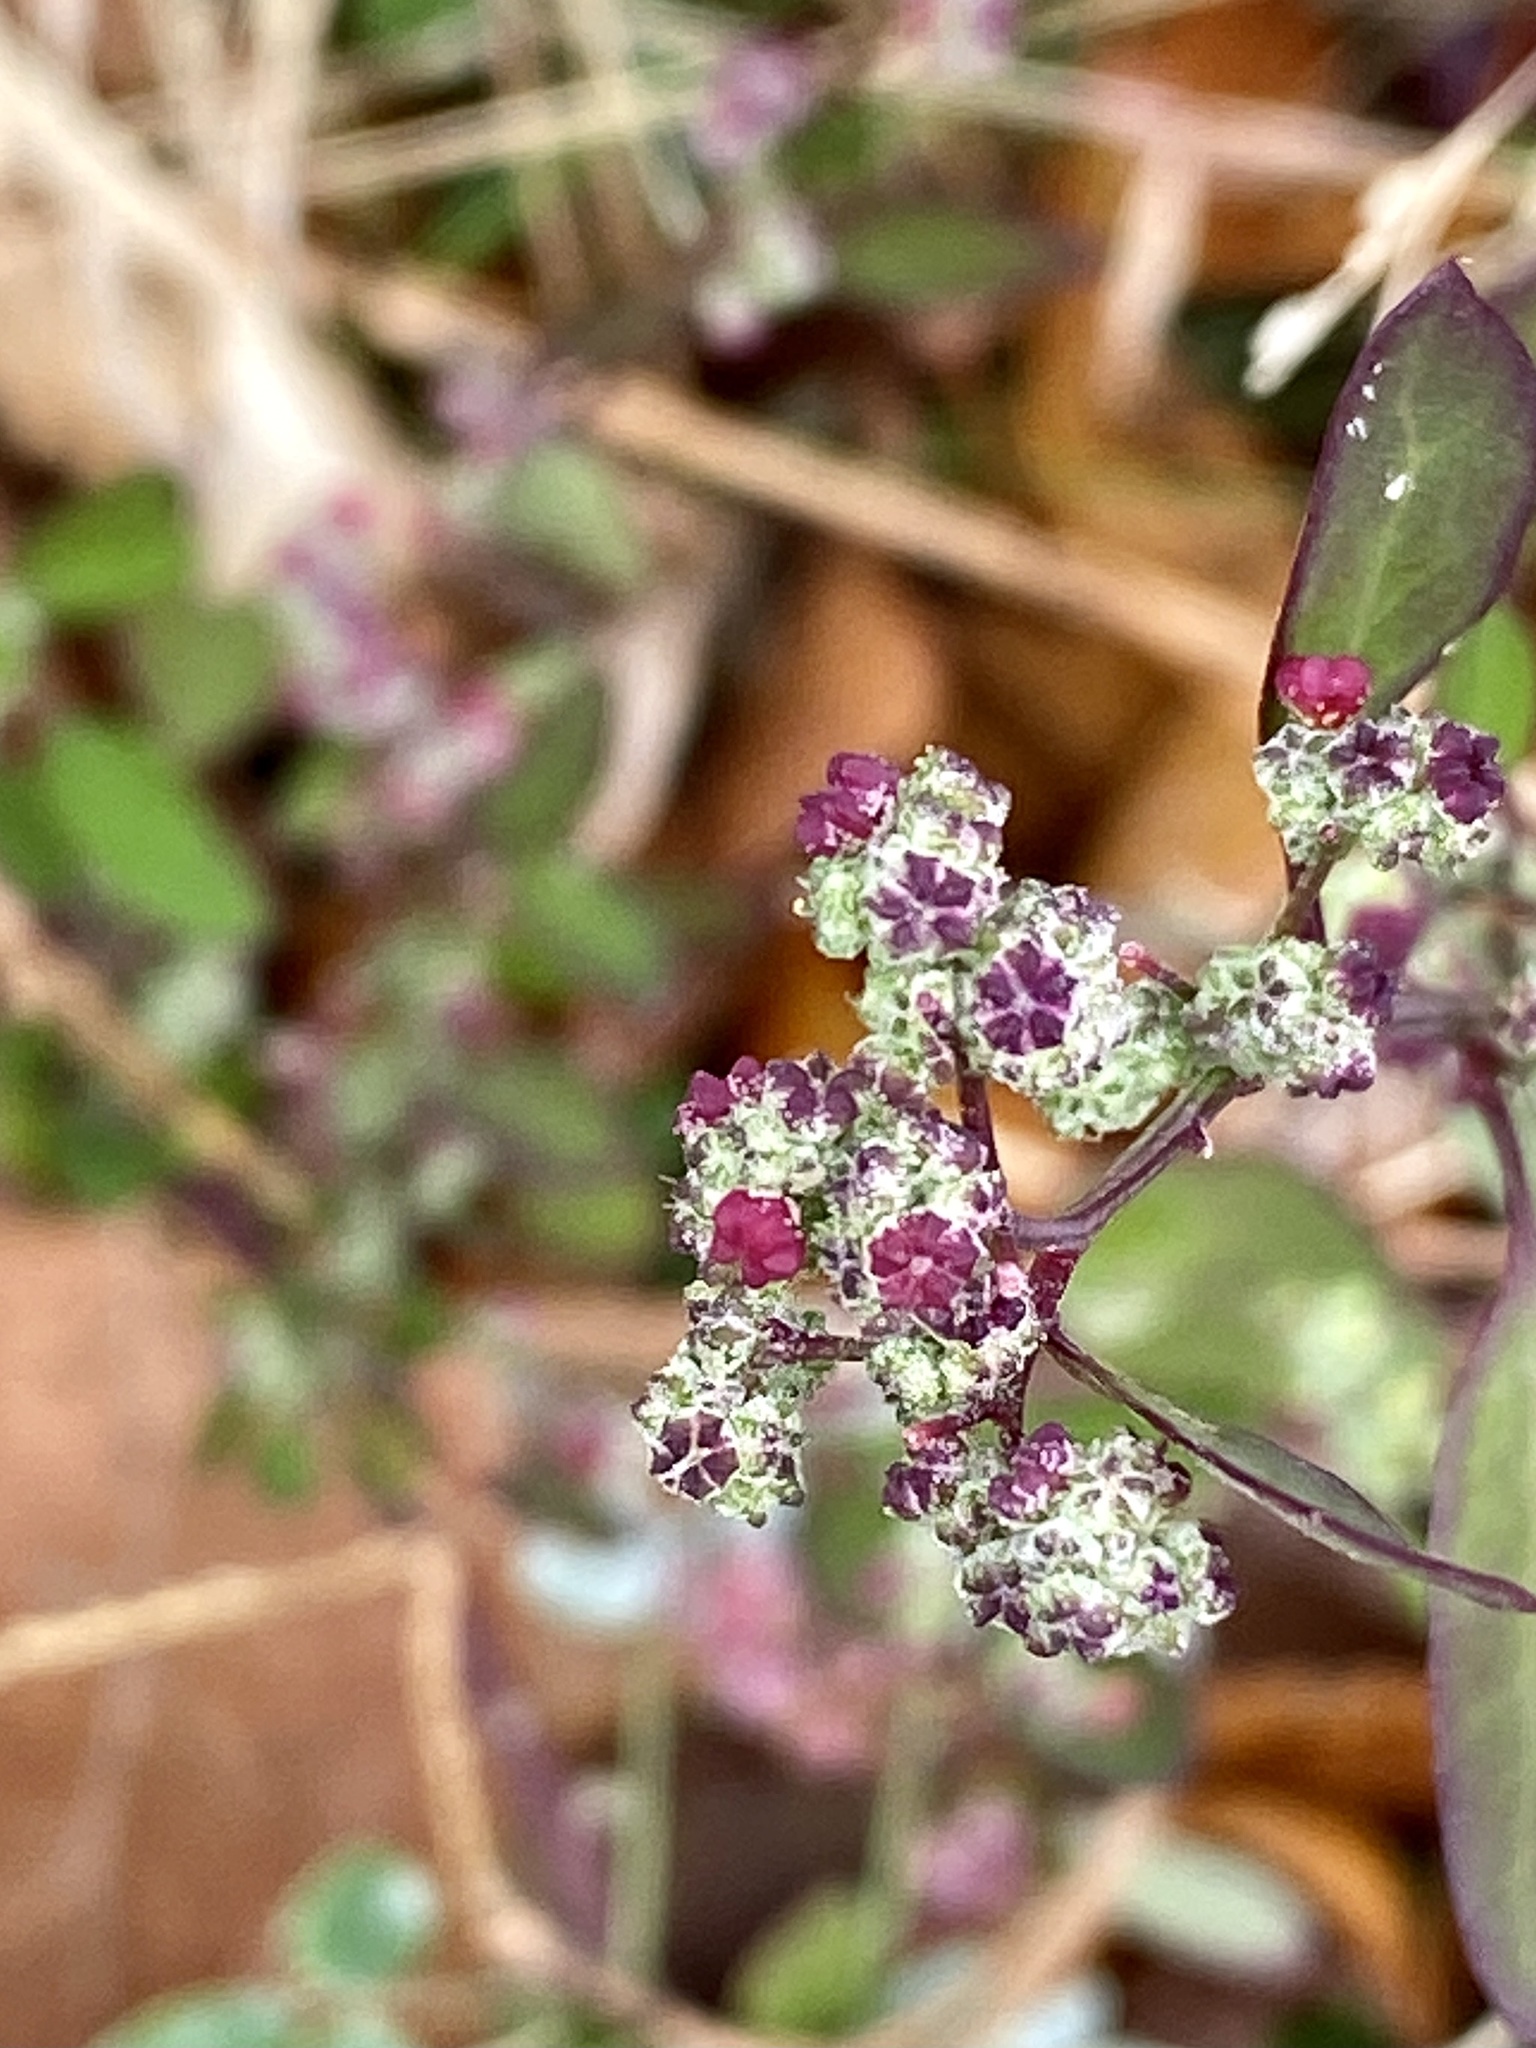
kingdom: Plantae
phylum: Tracheophyta
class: Magnoliopsida
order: Caryophyllales
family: Amaranthaceae
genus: Chenopodium
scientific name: Chenopodium album
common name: Fat-hen
